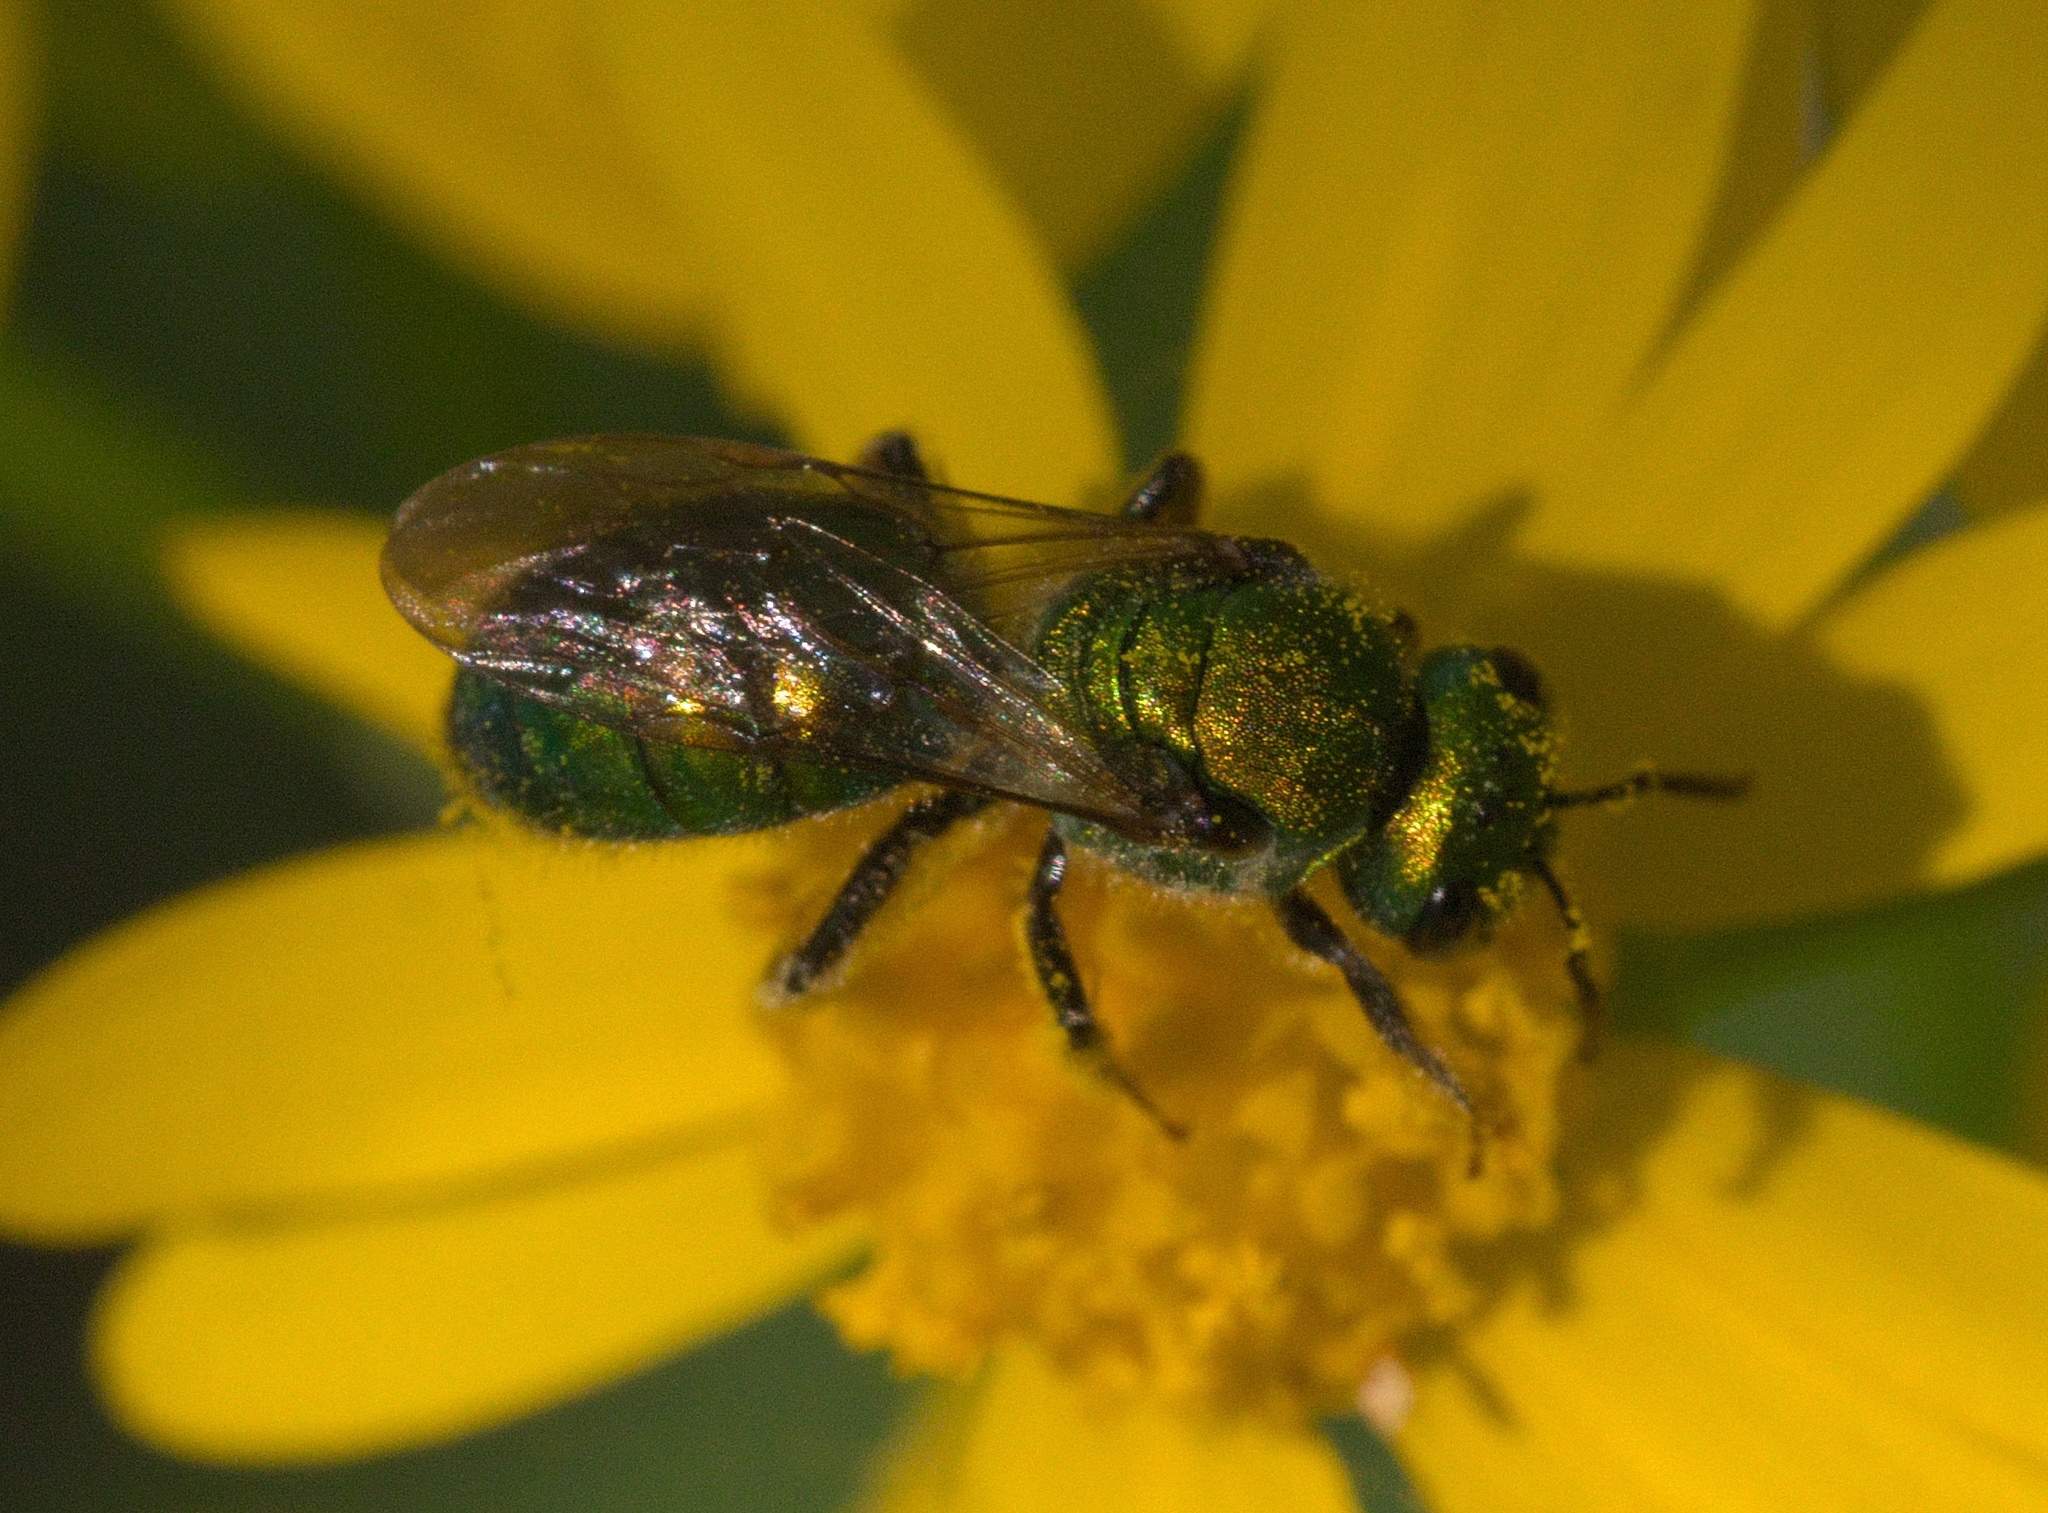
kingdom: Animalia
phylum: Arthropoda
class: Insecta
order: Hymenoptera
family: Halictidae
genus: Augochlora
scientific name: Augochlora pura
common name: Pure green sweat bee
